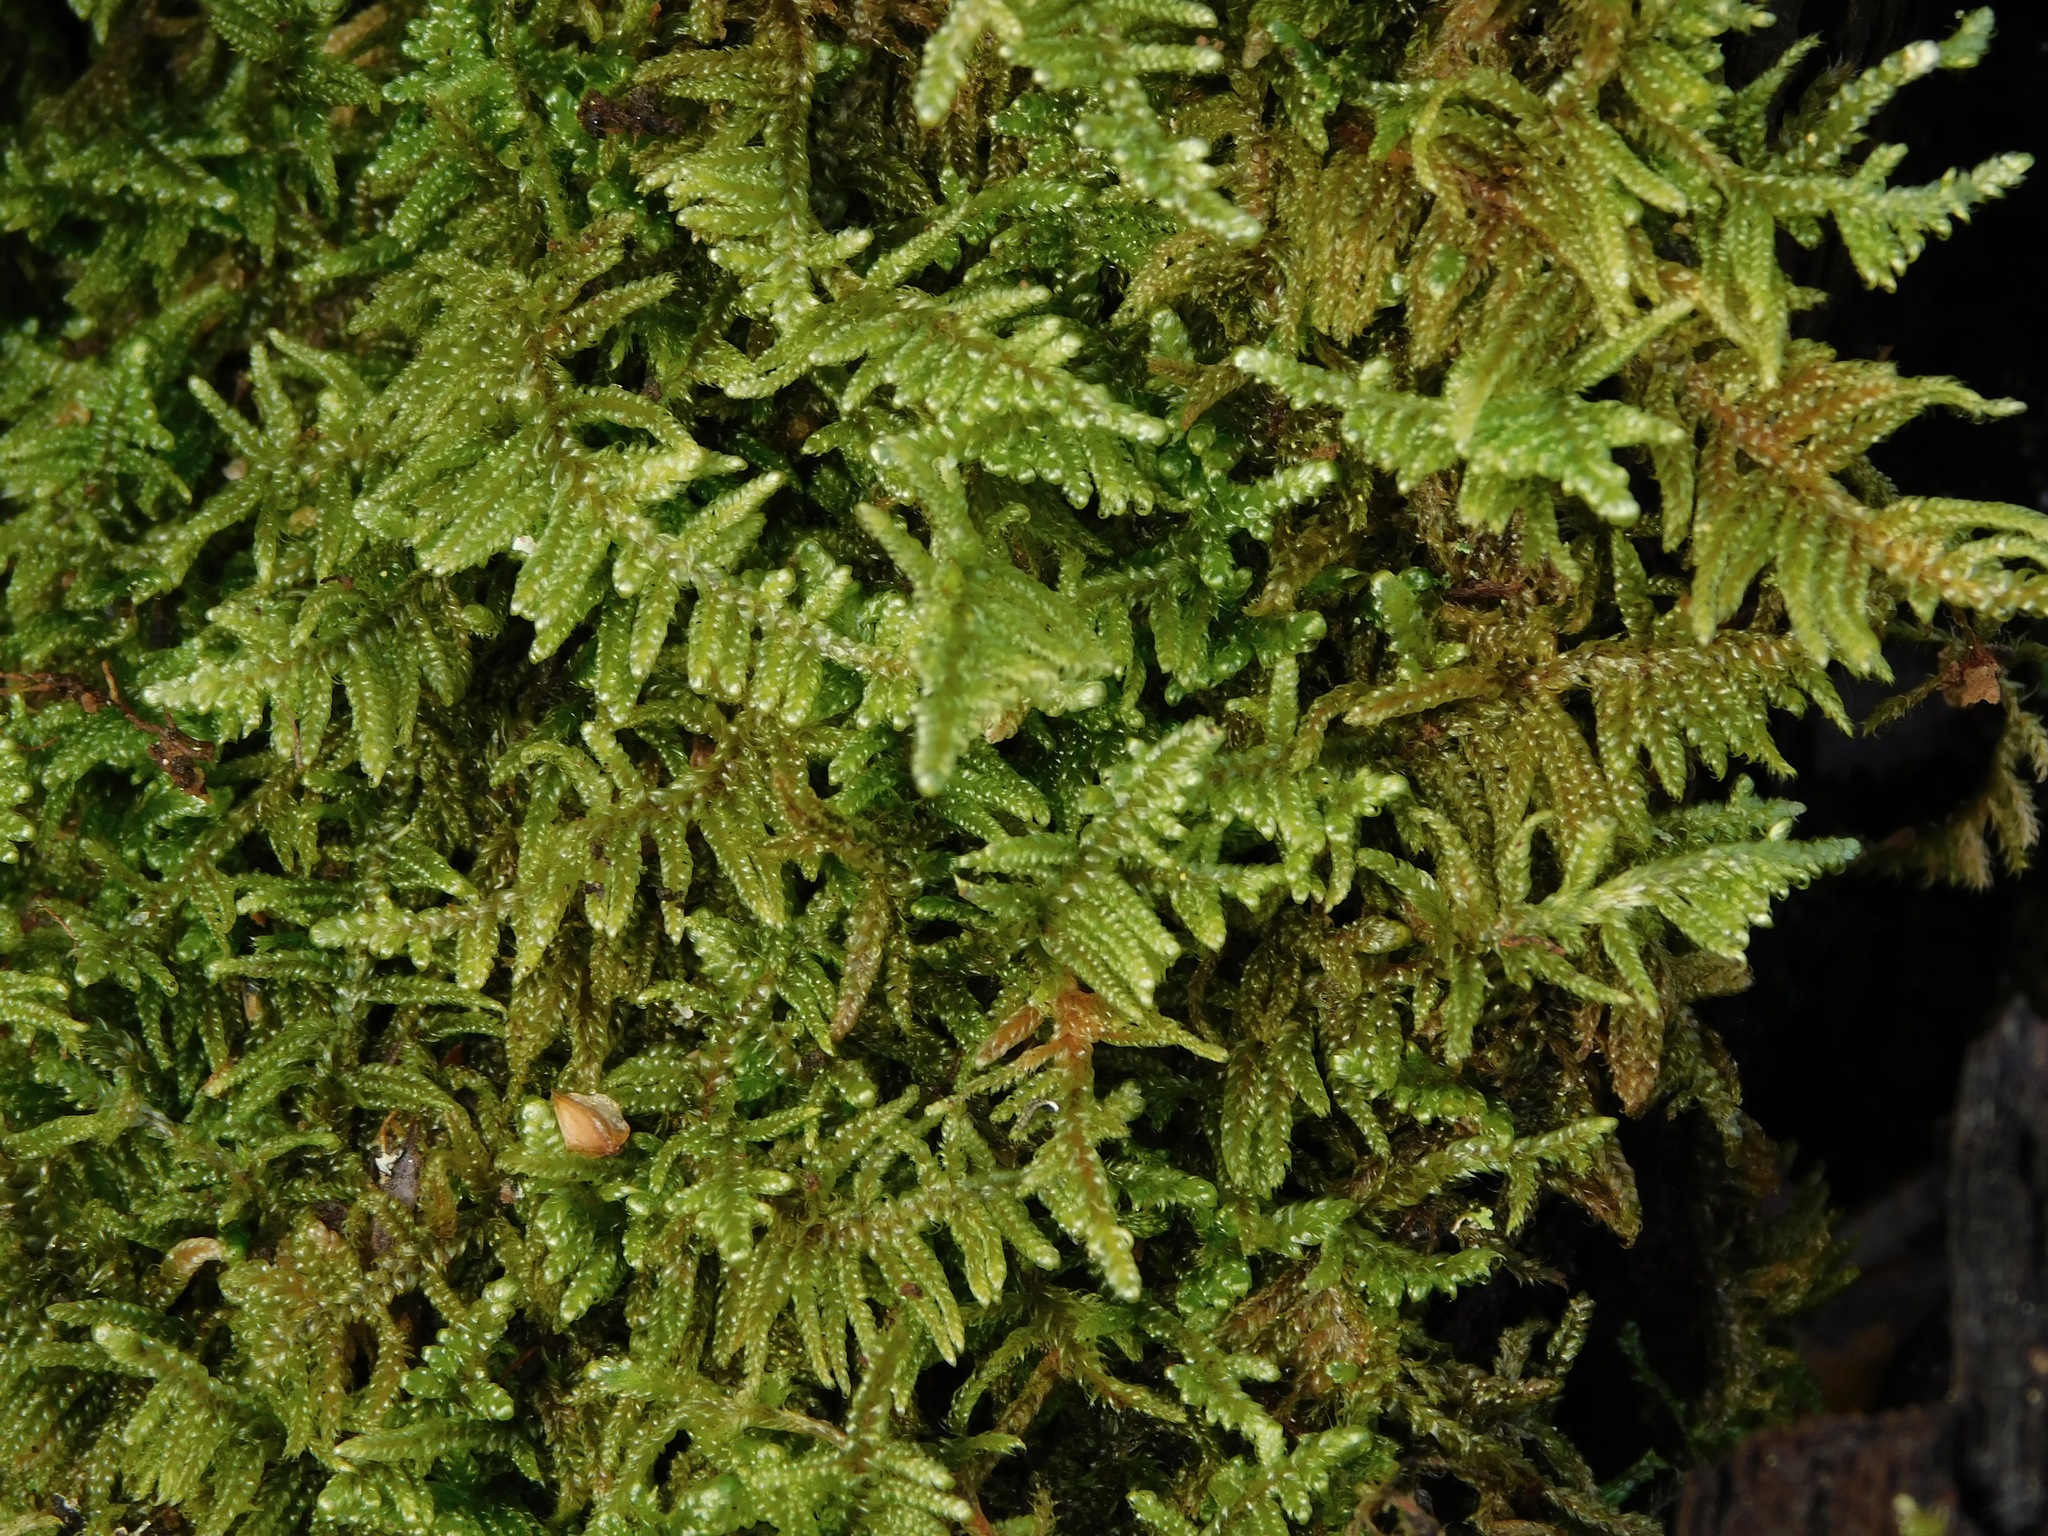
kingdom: Plantae
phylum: Bryophyta
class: Bryopsida
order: Hypnales
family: Callicladiaceae
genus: Callicladium
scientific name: Callicladium imponens
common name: Brocade moss
